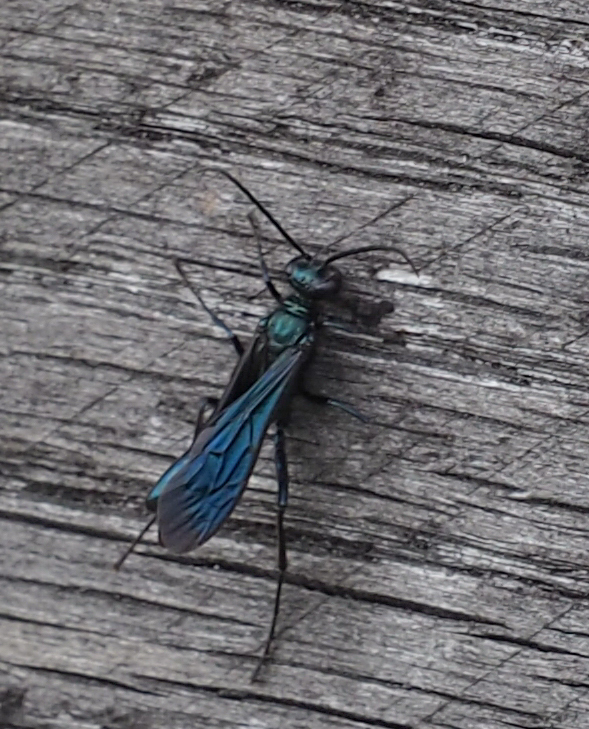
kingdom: Animalia
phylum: Arthropoda
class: Insecta
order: Hymenoptera
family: Sphecidae
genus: Chalybion
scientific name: Chalybion californicum
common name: Mud dauber
